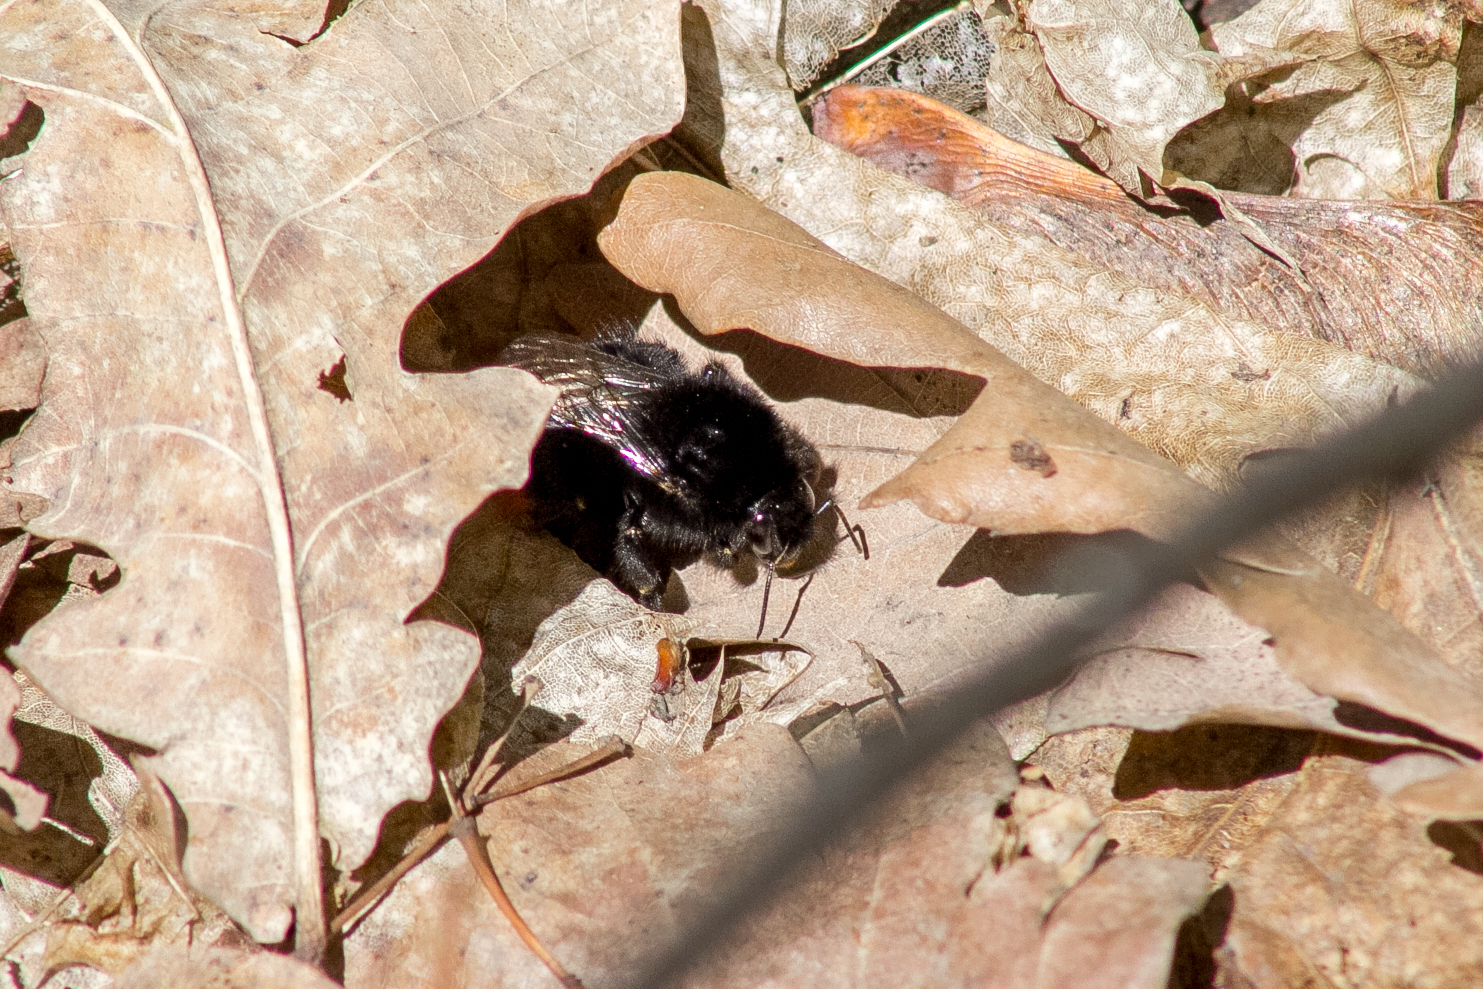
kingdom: Animalia
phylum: Arthropoda
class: Insecta
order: Hymenoptera
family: Apidae
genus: Bombus
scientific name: Bombus lapidarius
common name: Large red-tailed humble-bee
